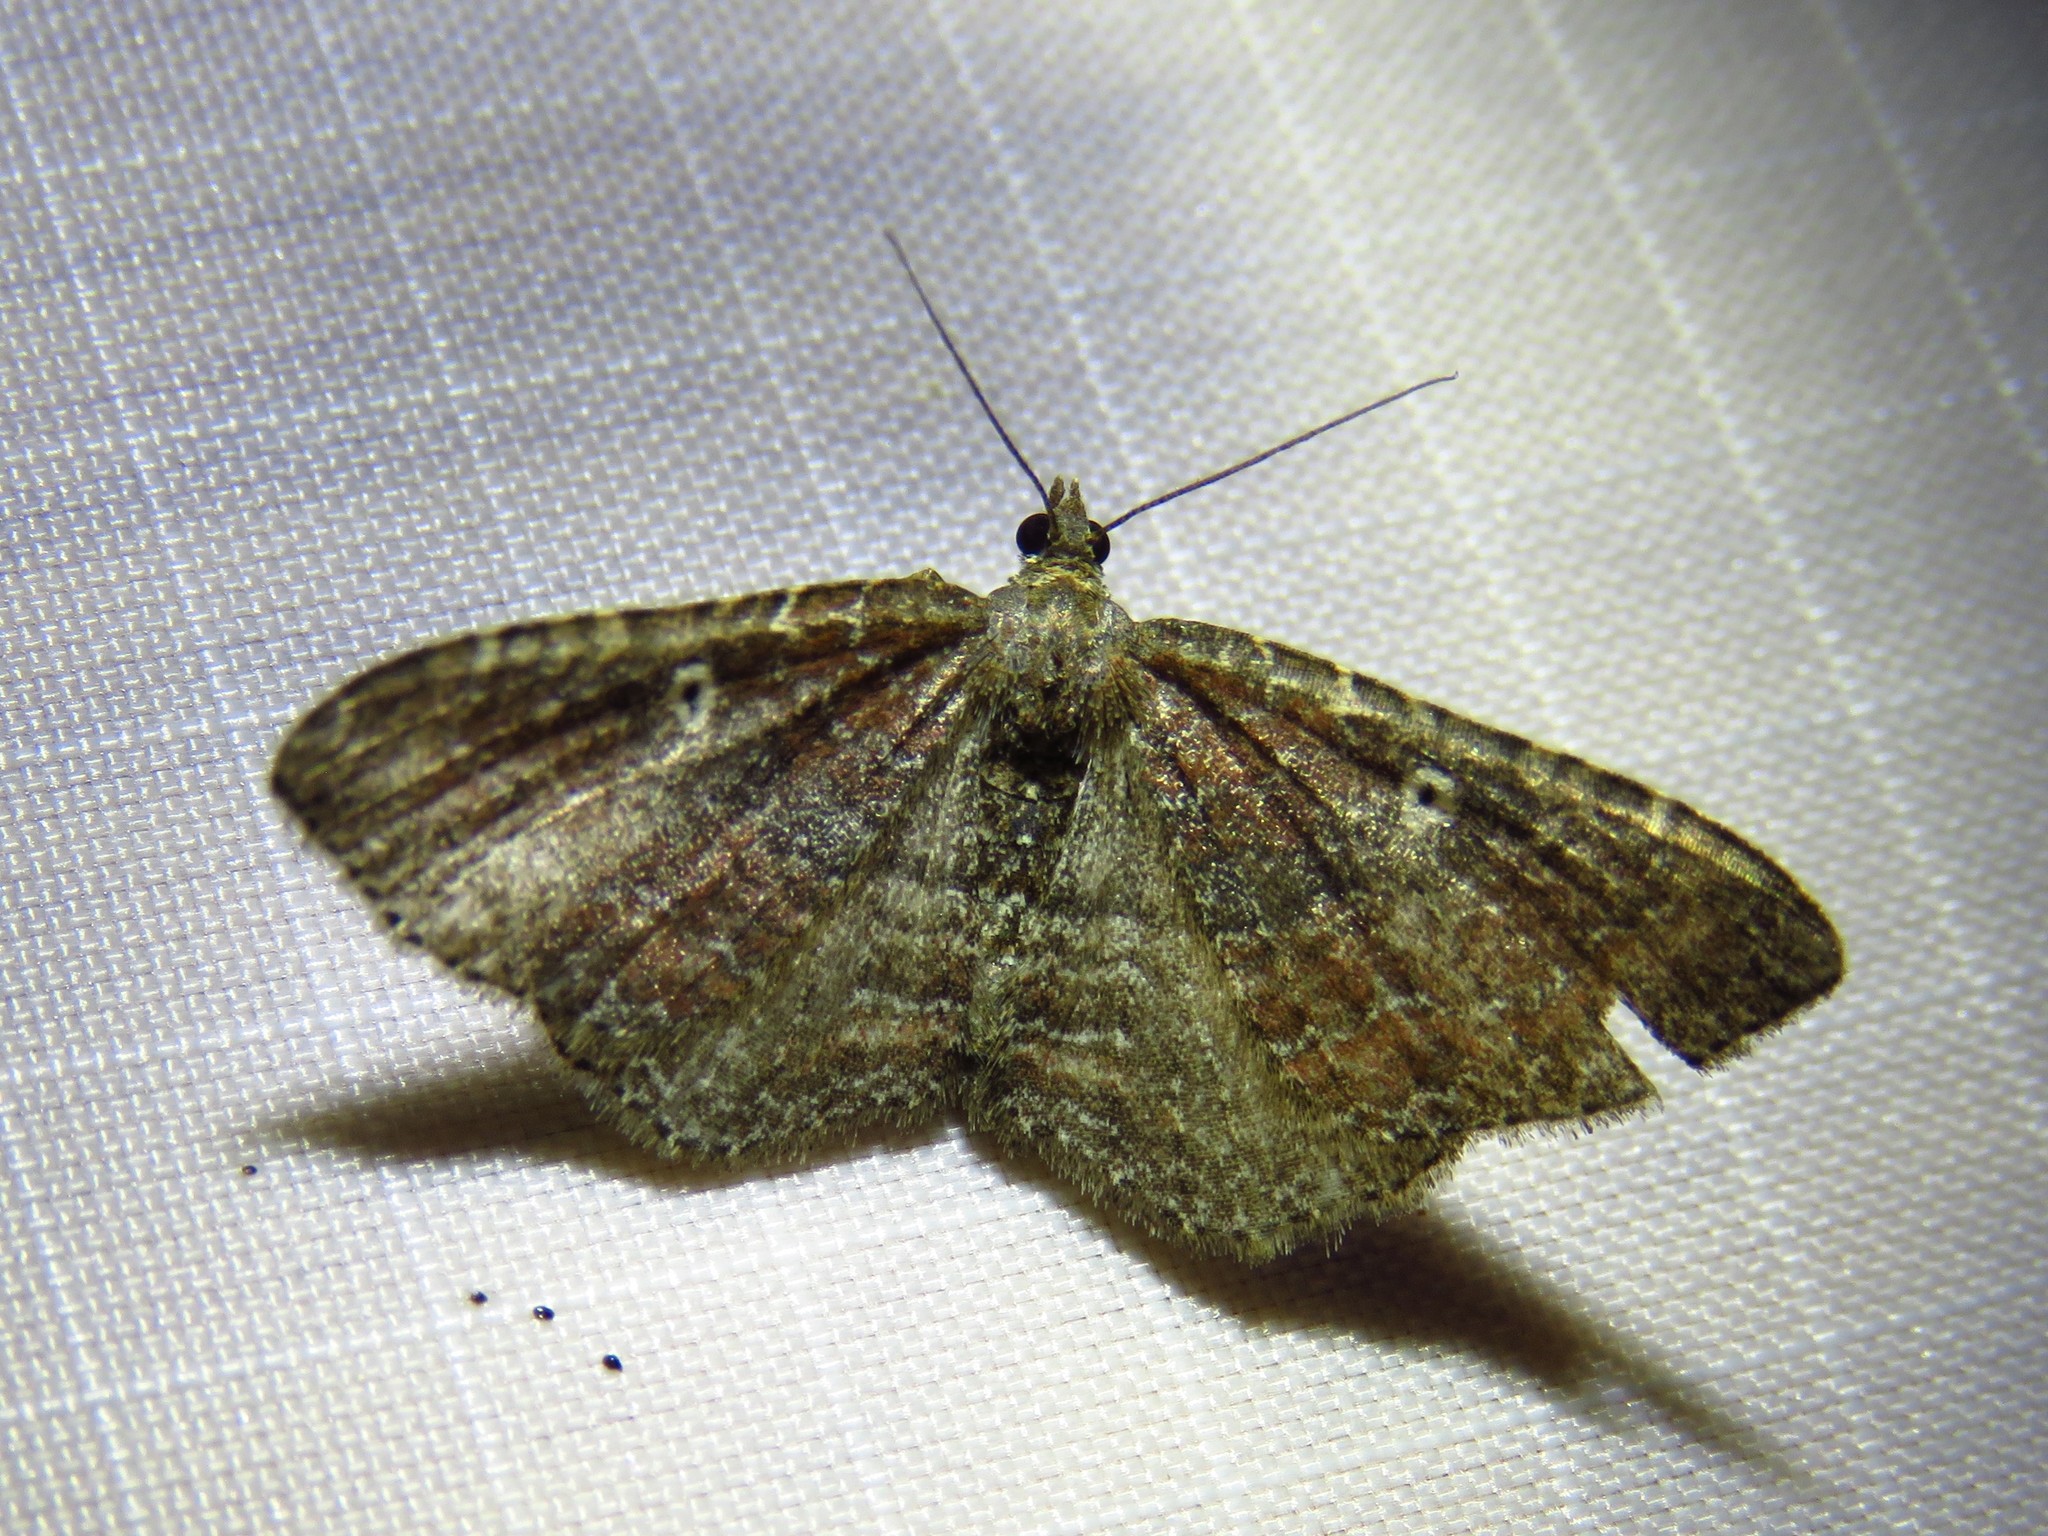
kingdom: Animalia
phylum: Arthropoda
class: Insecta
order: Lepidoptera
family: Geometridae
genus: Orthonama
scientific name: Orthonama obstipata
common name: The gem
